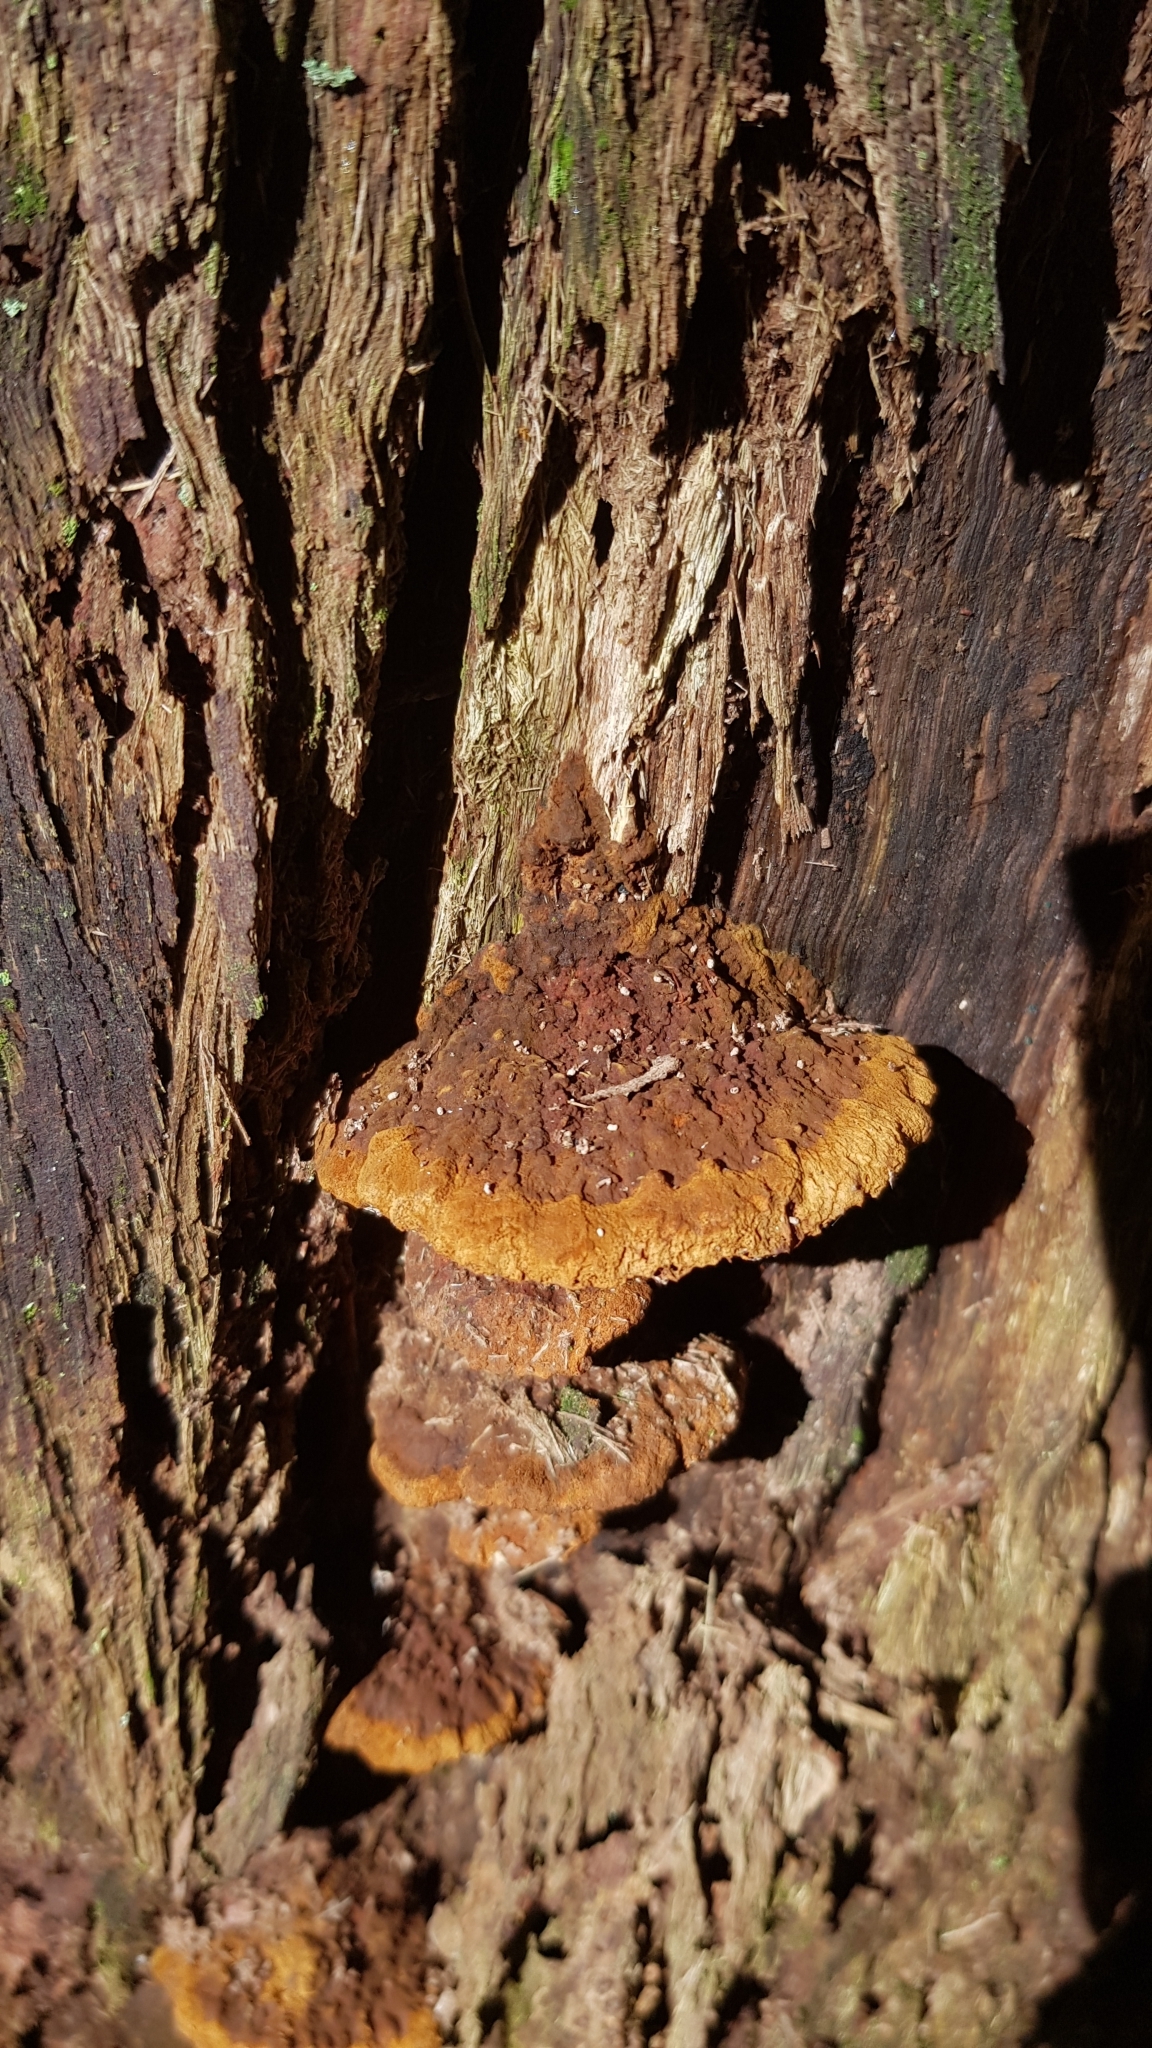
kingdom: Fungi
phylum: Basidiomycota
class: Agaricomycetes
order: Hymenochaetales
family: Hymenochaetaceae
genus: Phellinus
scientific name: Phellinus gilvus
